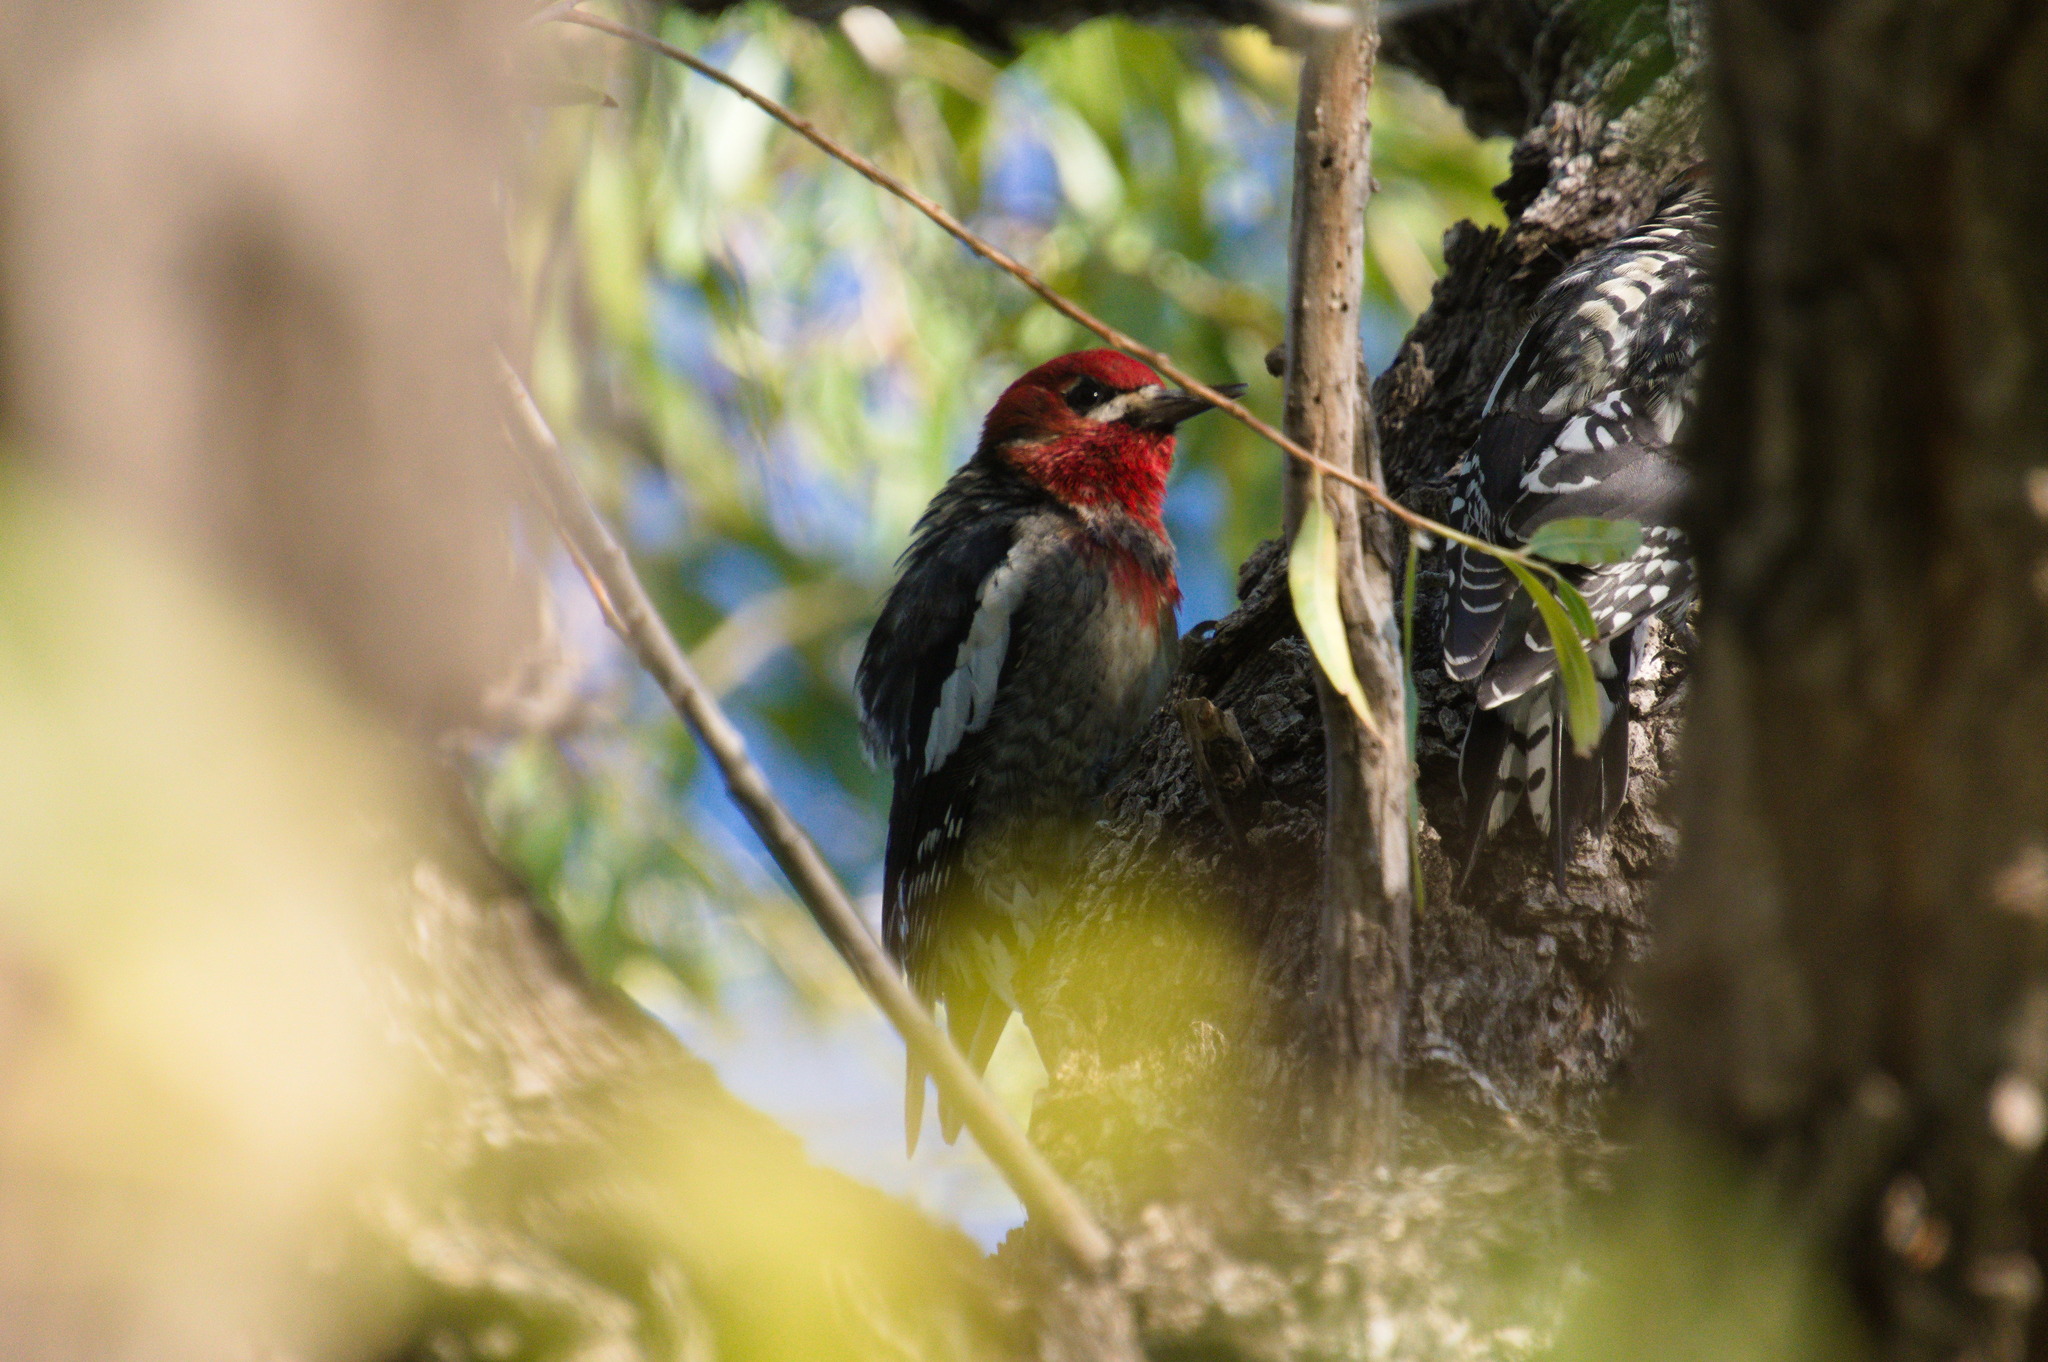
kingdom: Animalia
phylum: Chordata
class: Aves
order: Piciformes
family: Picidae
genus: Sphyrapicus
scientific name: Sphyrapicus
